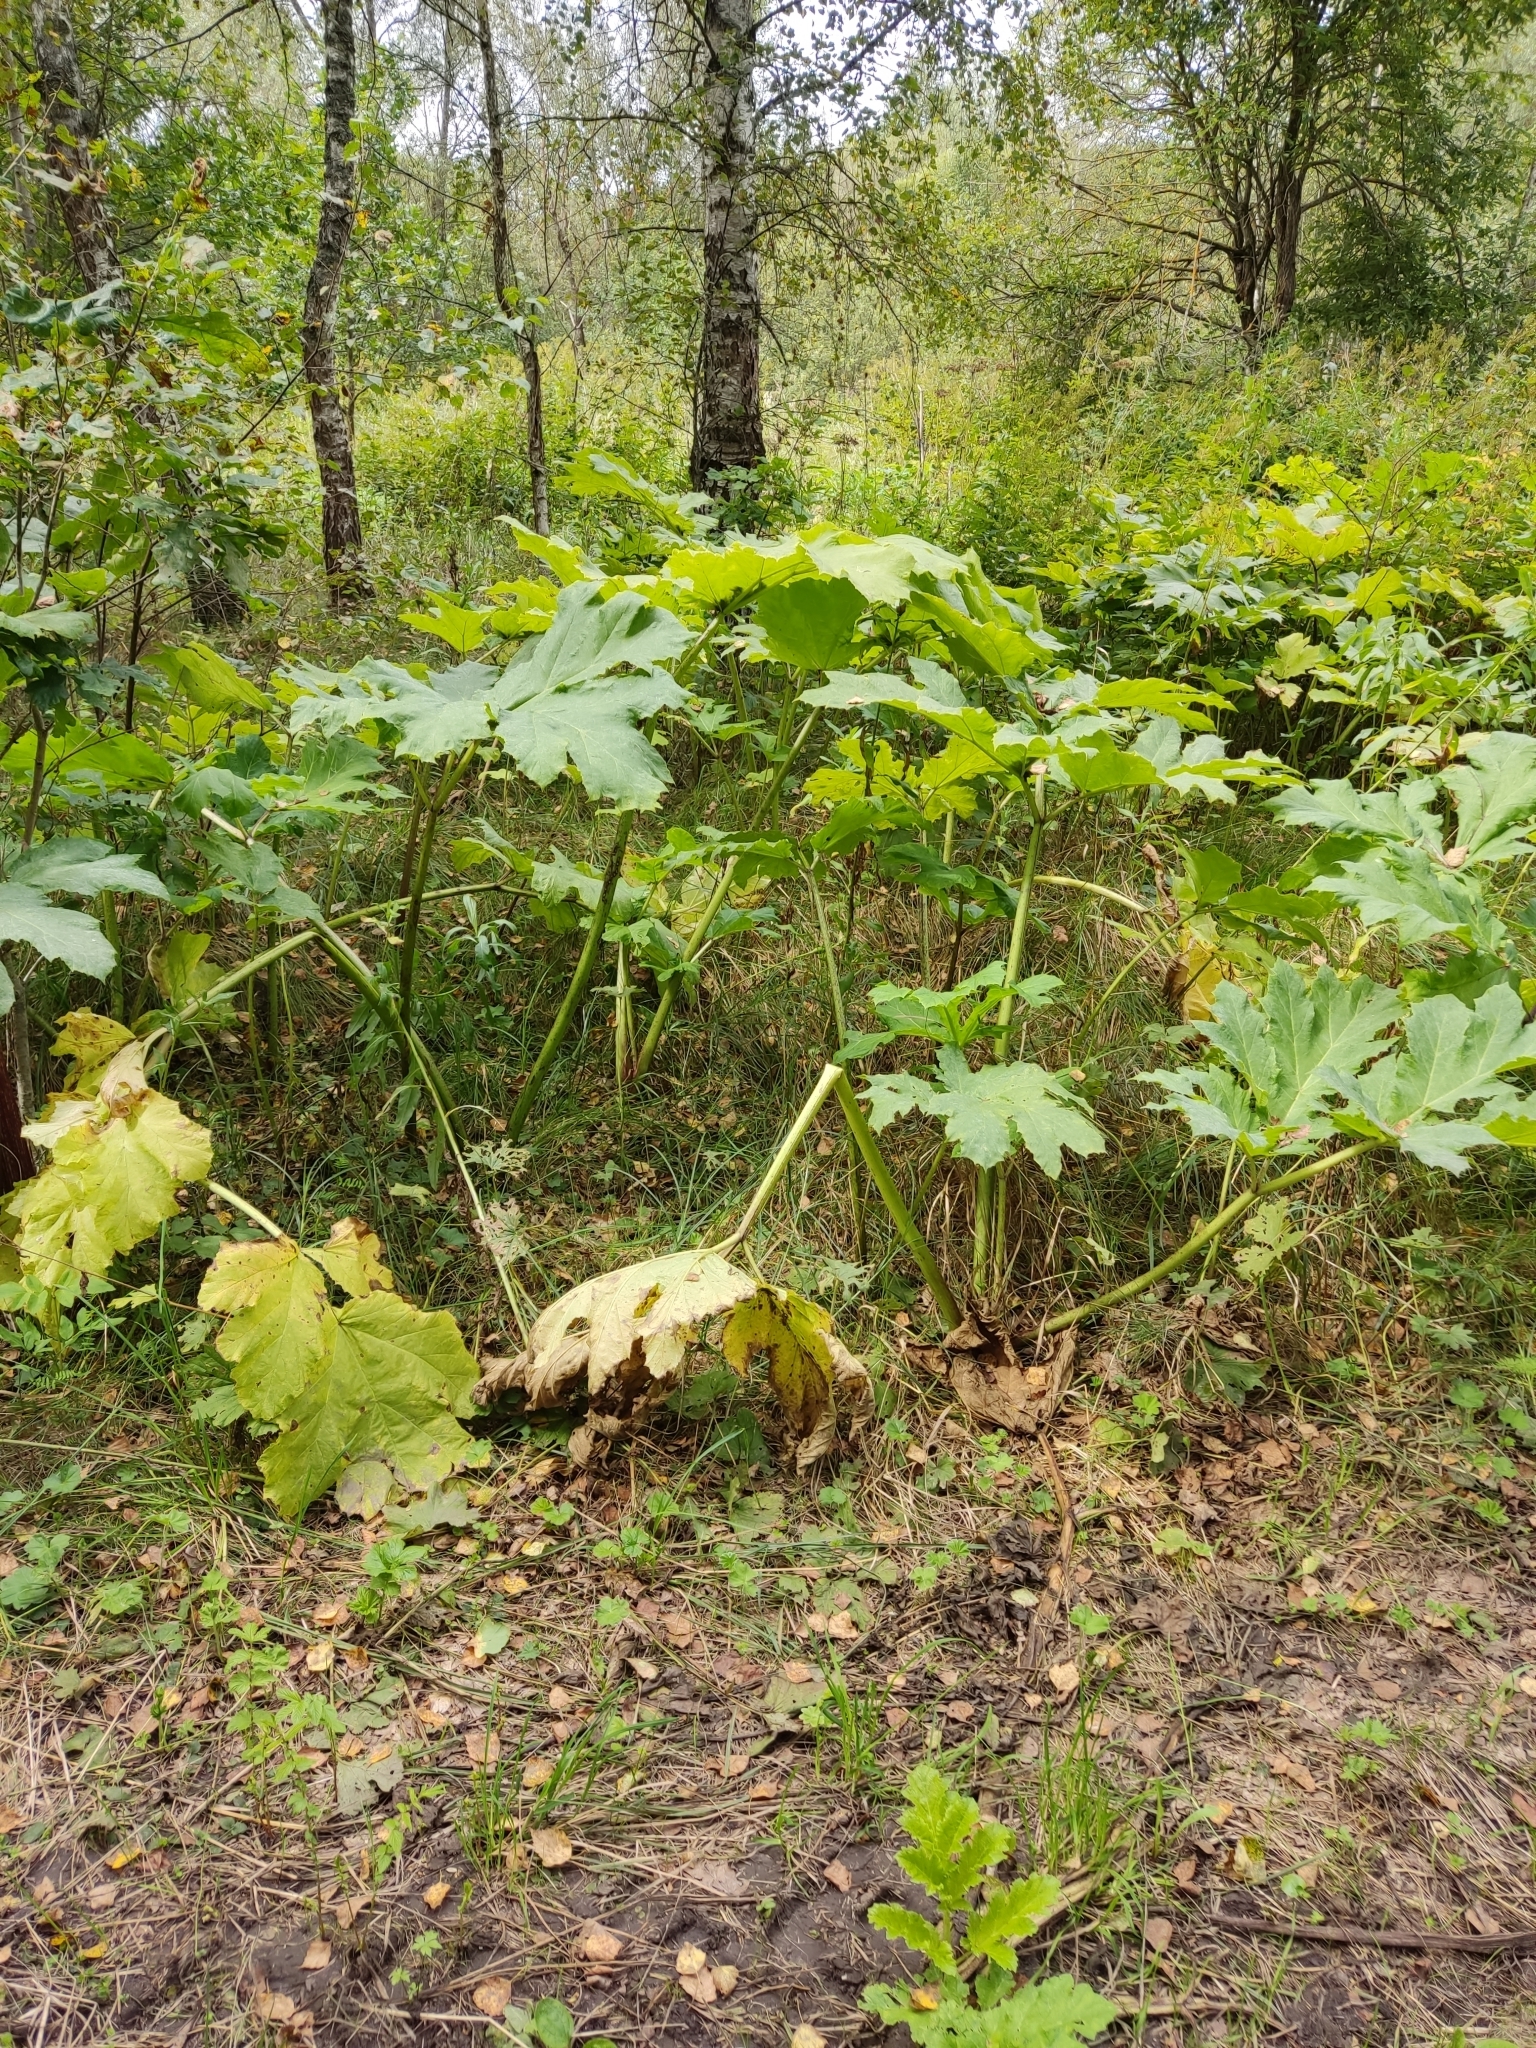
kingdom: Plantae
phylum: Tracheophyta
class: Magnoliopsida
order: Apiales
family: Apiaceae
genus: Heracleum
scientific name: Heracleum sosnowskyi
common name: Sosnowsky's hogweed
